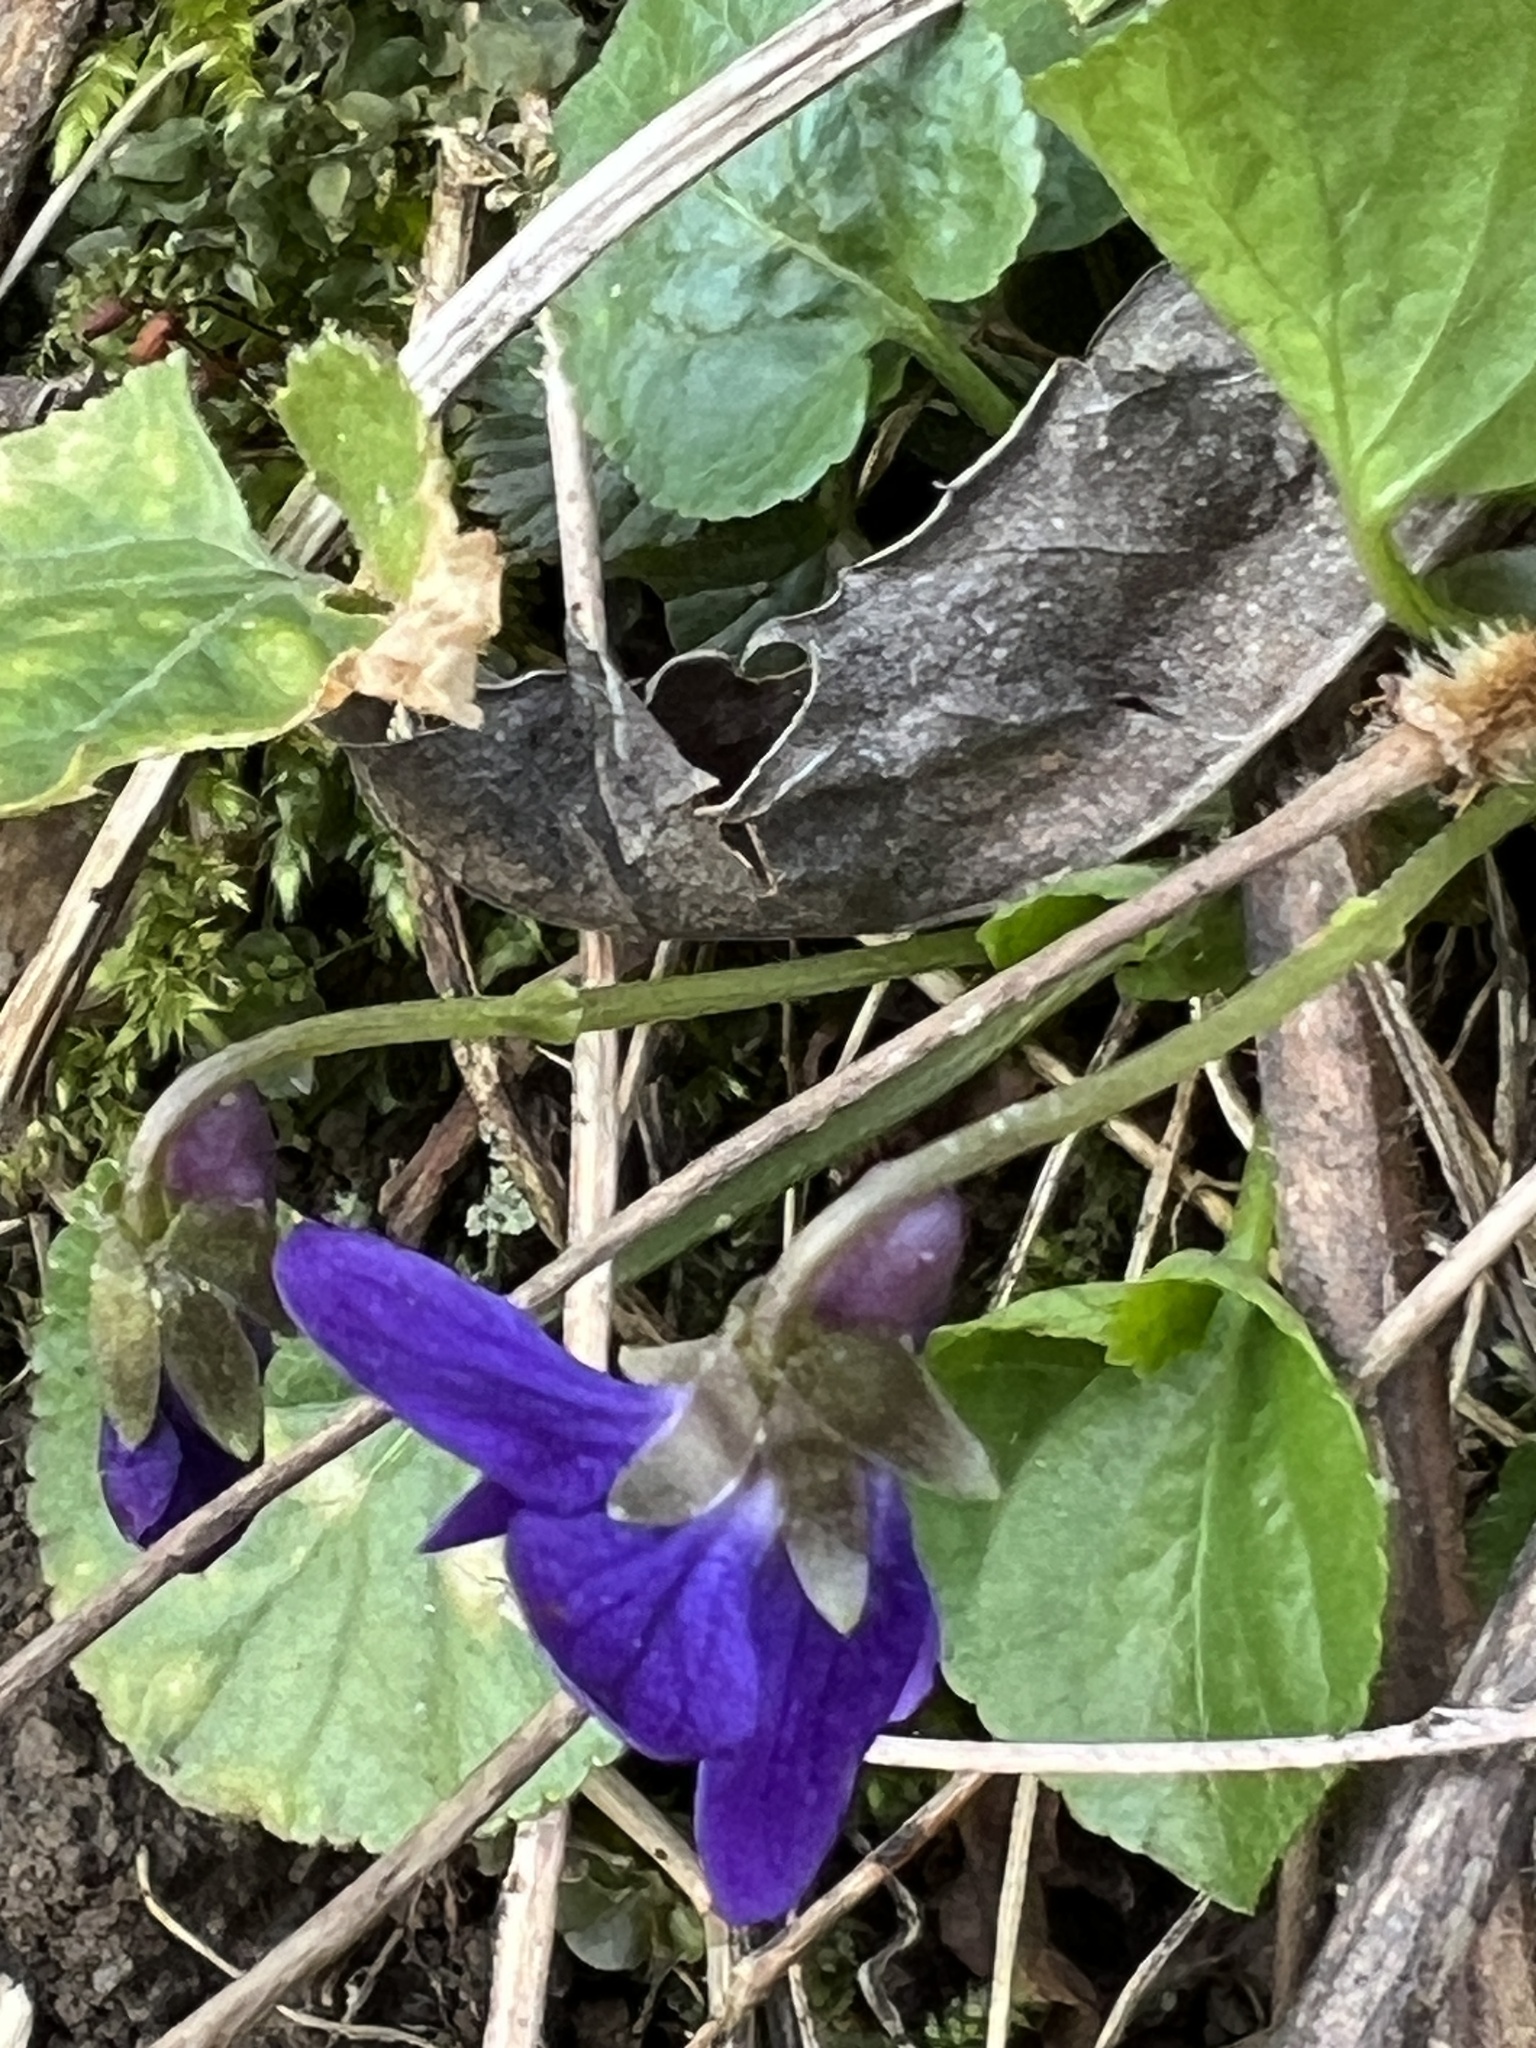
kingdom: Plantae
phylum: Tracheophyta
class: Magnoliopsida
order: Malpighiales
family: Violaceae
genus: Viola
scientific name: Viola odorata
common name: Sweet violet
